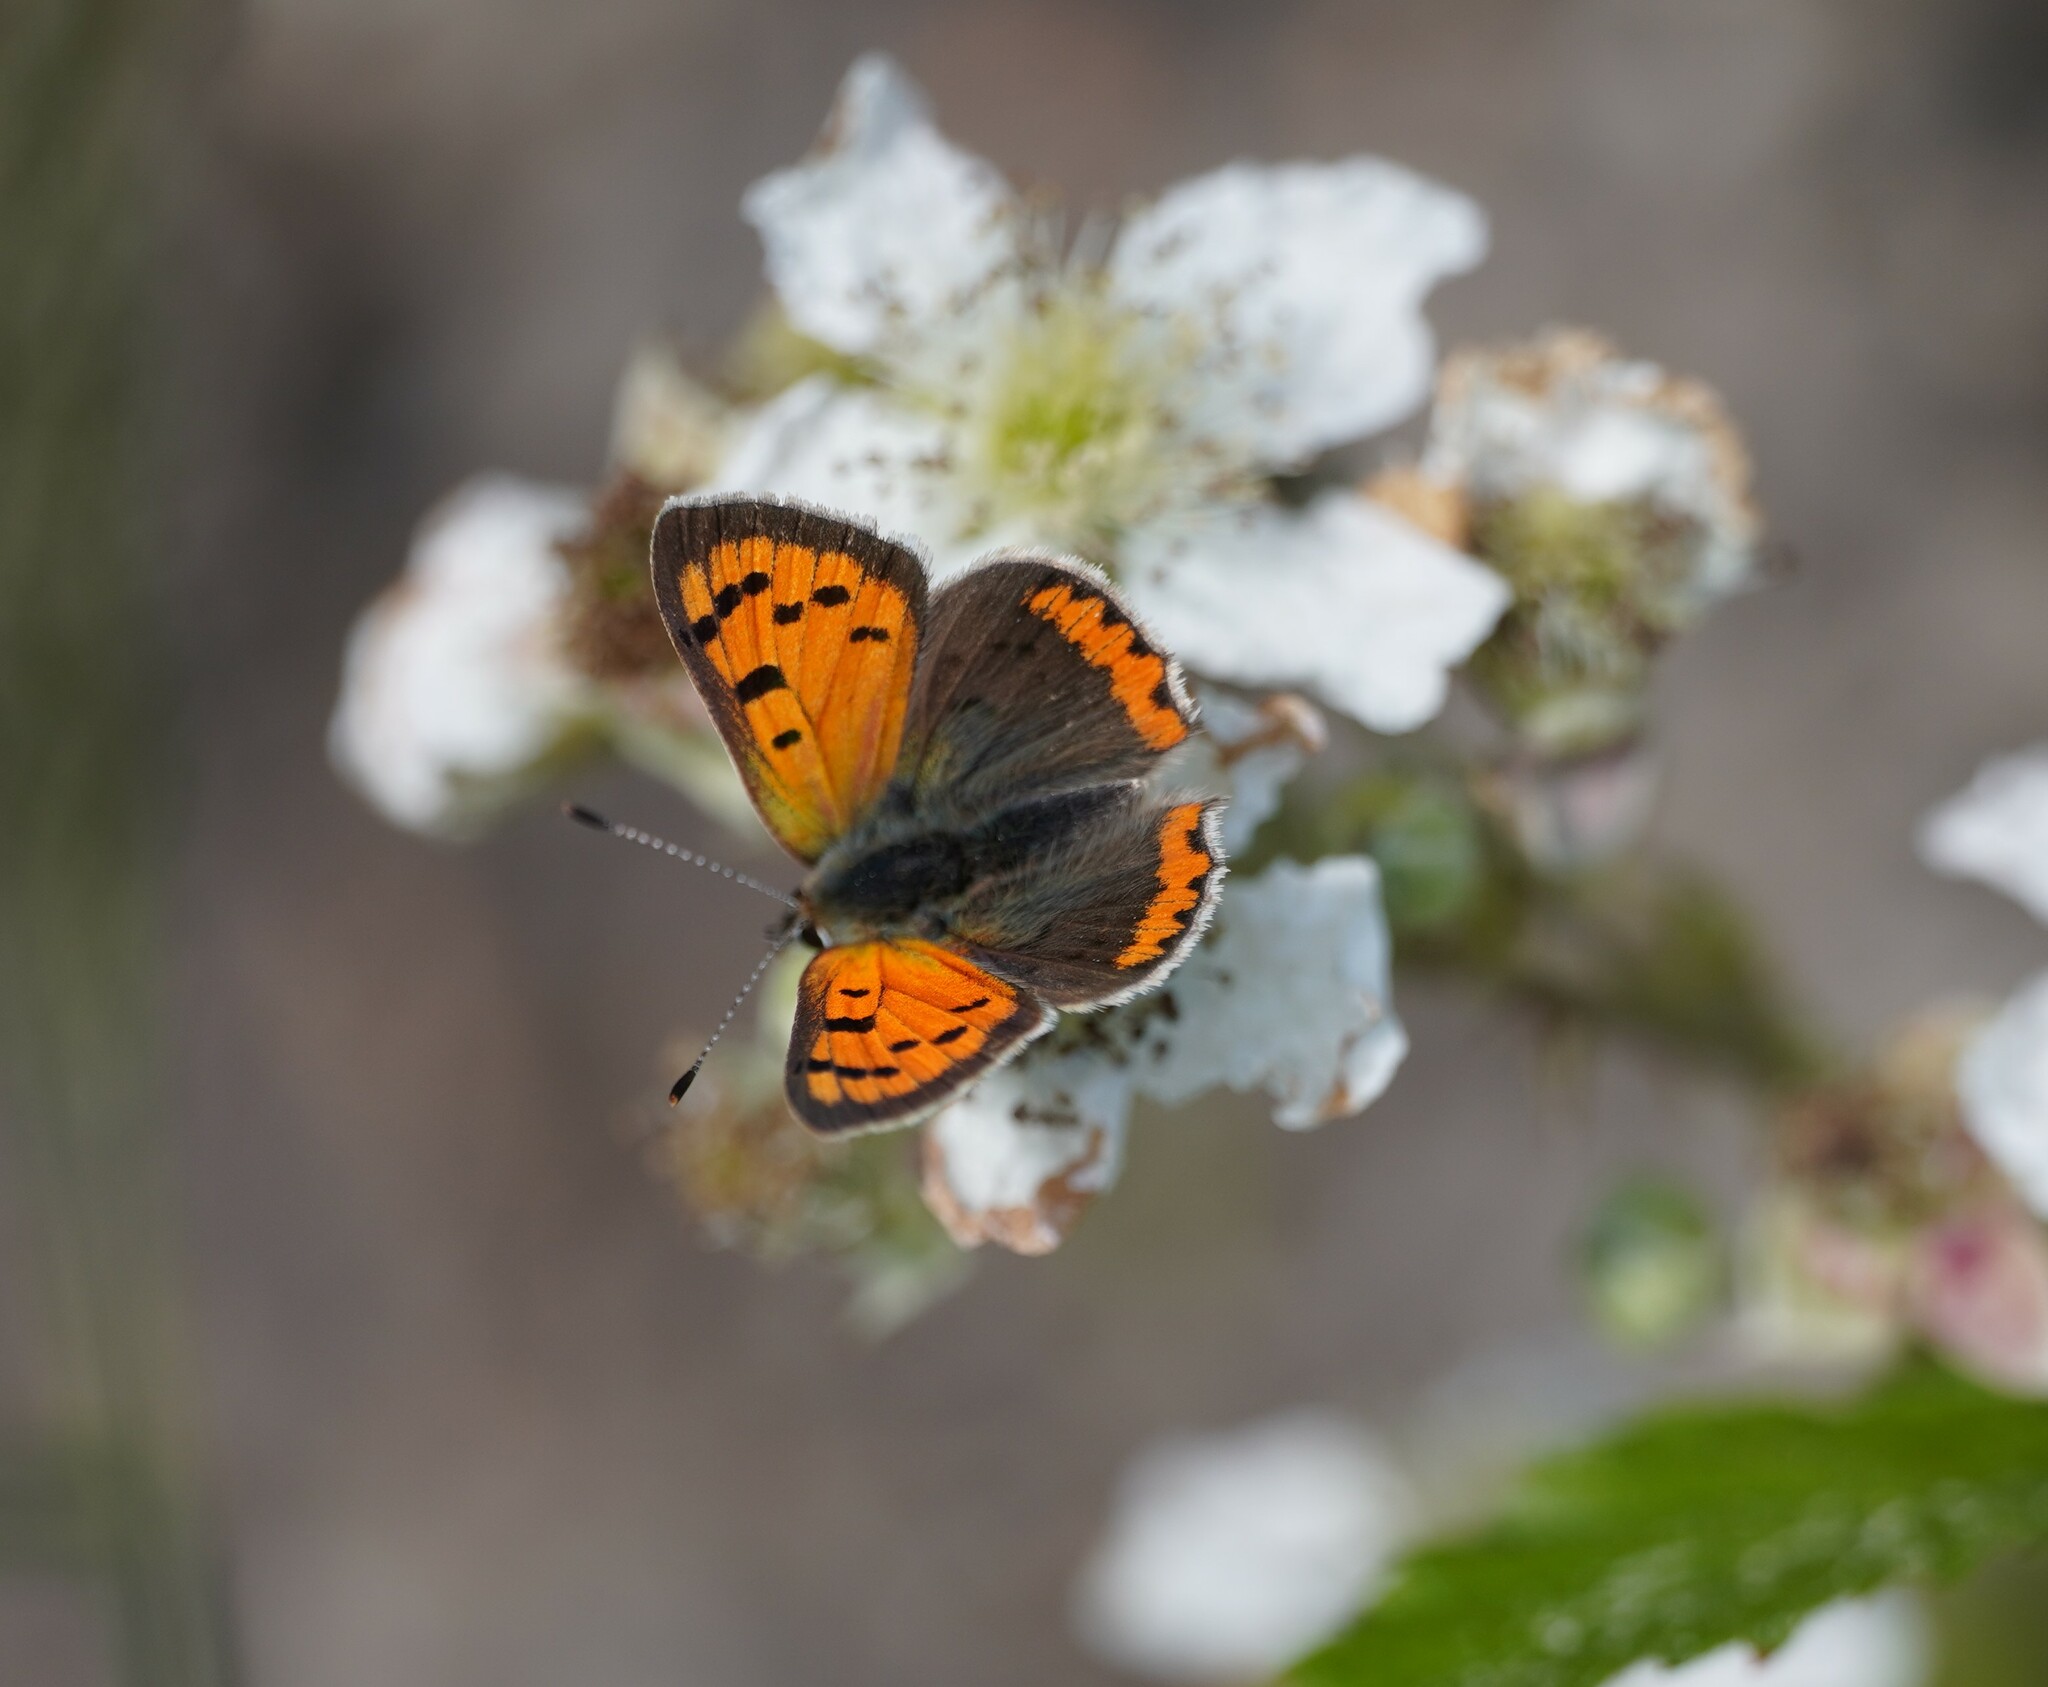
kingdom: Animalia
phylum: Arthropoda
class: Insecta
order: Lepidoptera
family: Lycaenidae
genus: Lycaena
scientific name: Lycaena phlaeas
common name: Small copper
